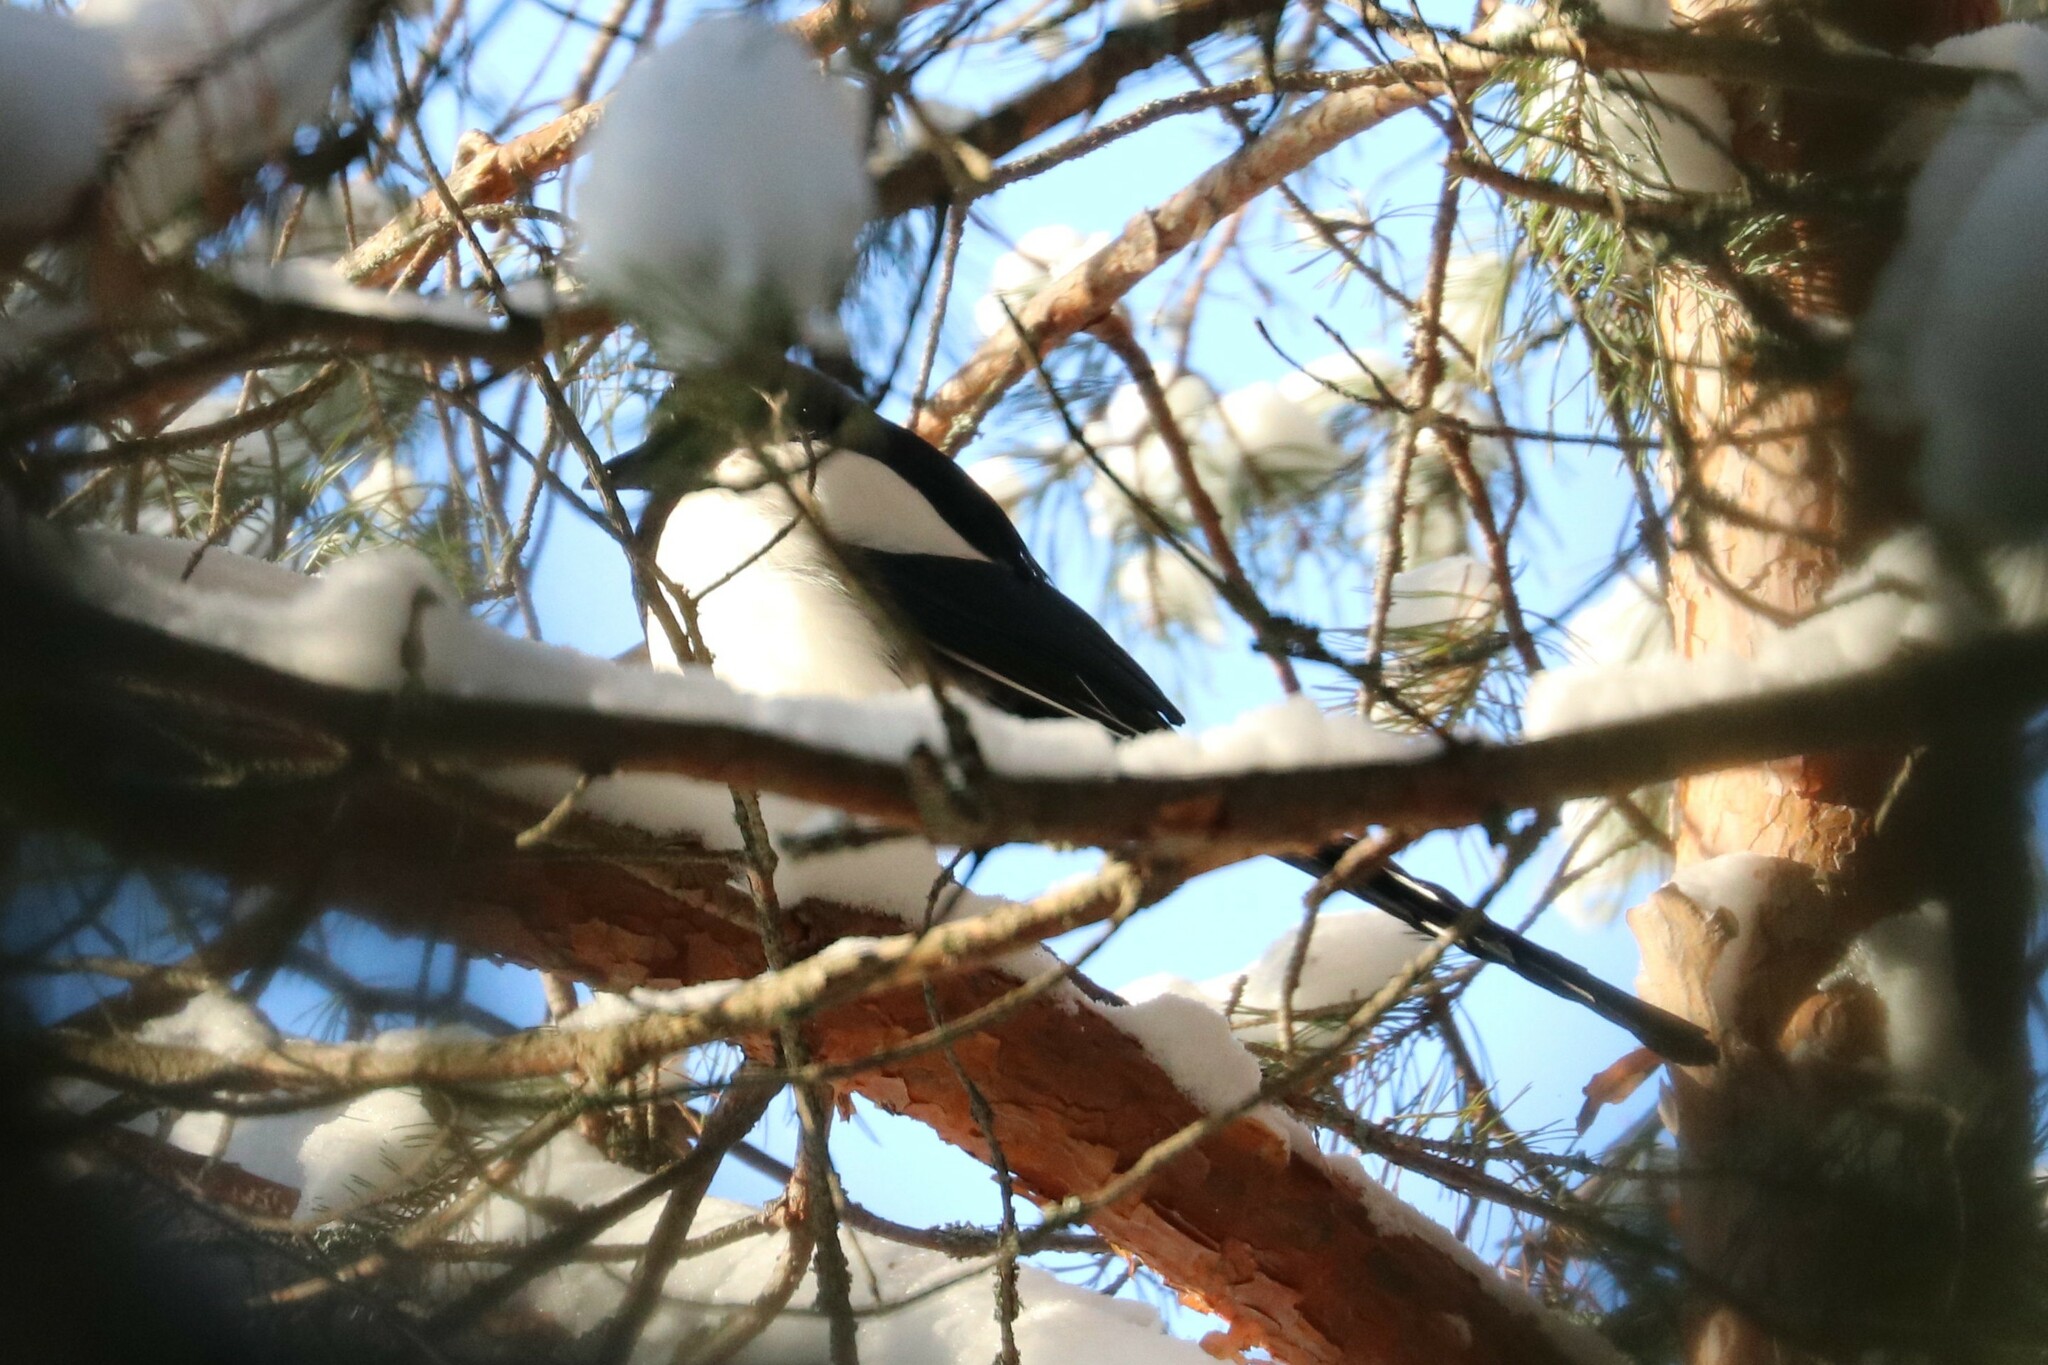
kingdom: Animalia
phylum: Chordata
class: Aves
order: Passeriformes
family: Corvidae
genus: Pica
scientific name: Pica pica
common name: Eurasian magpie
